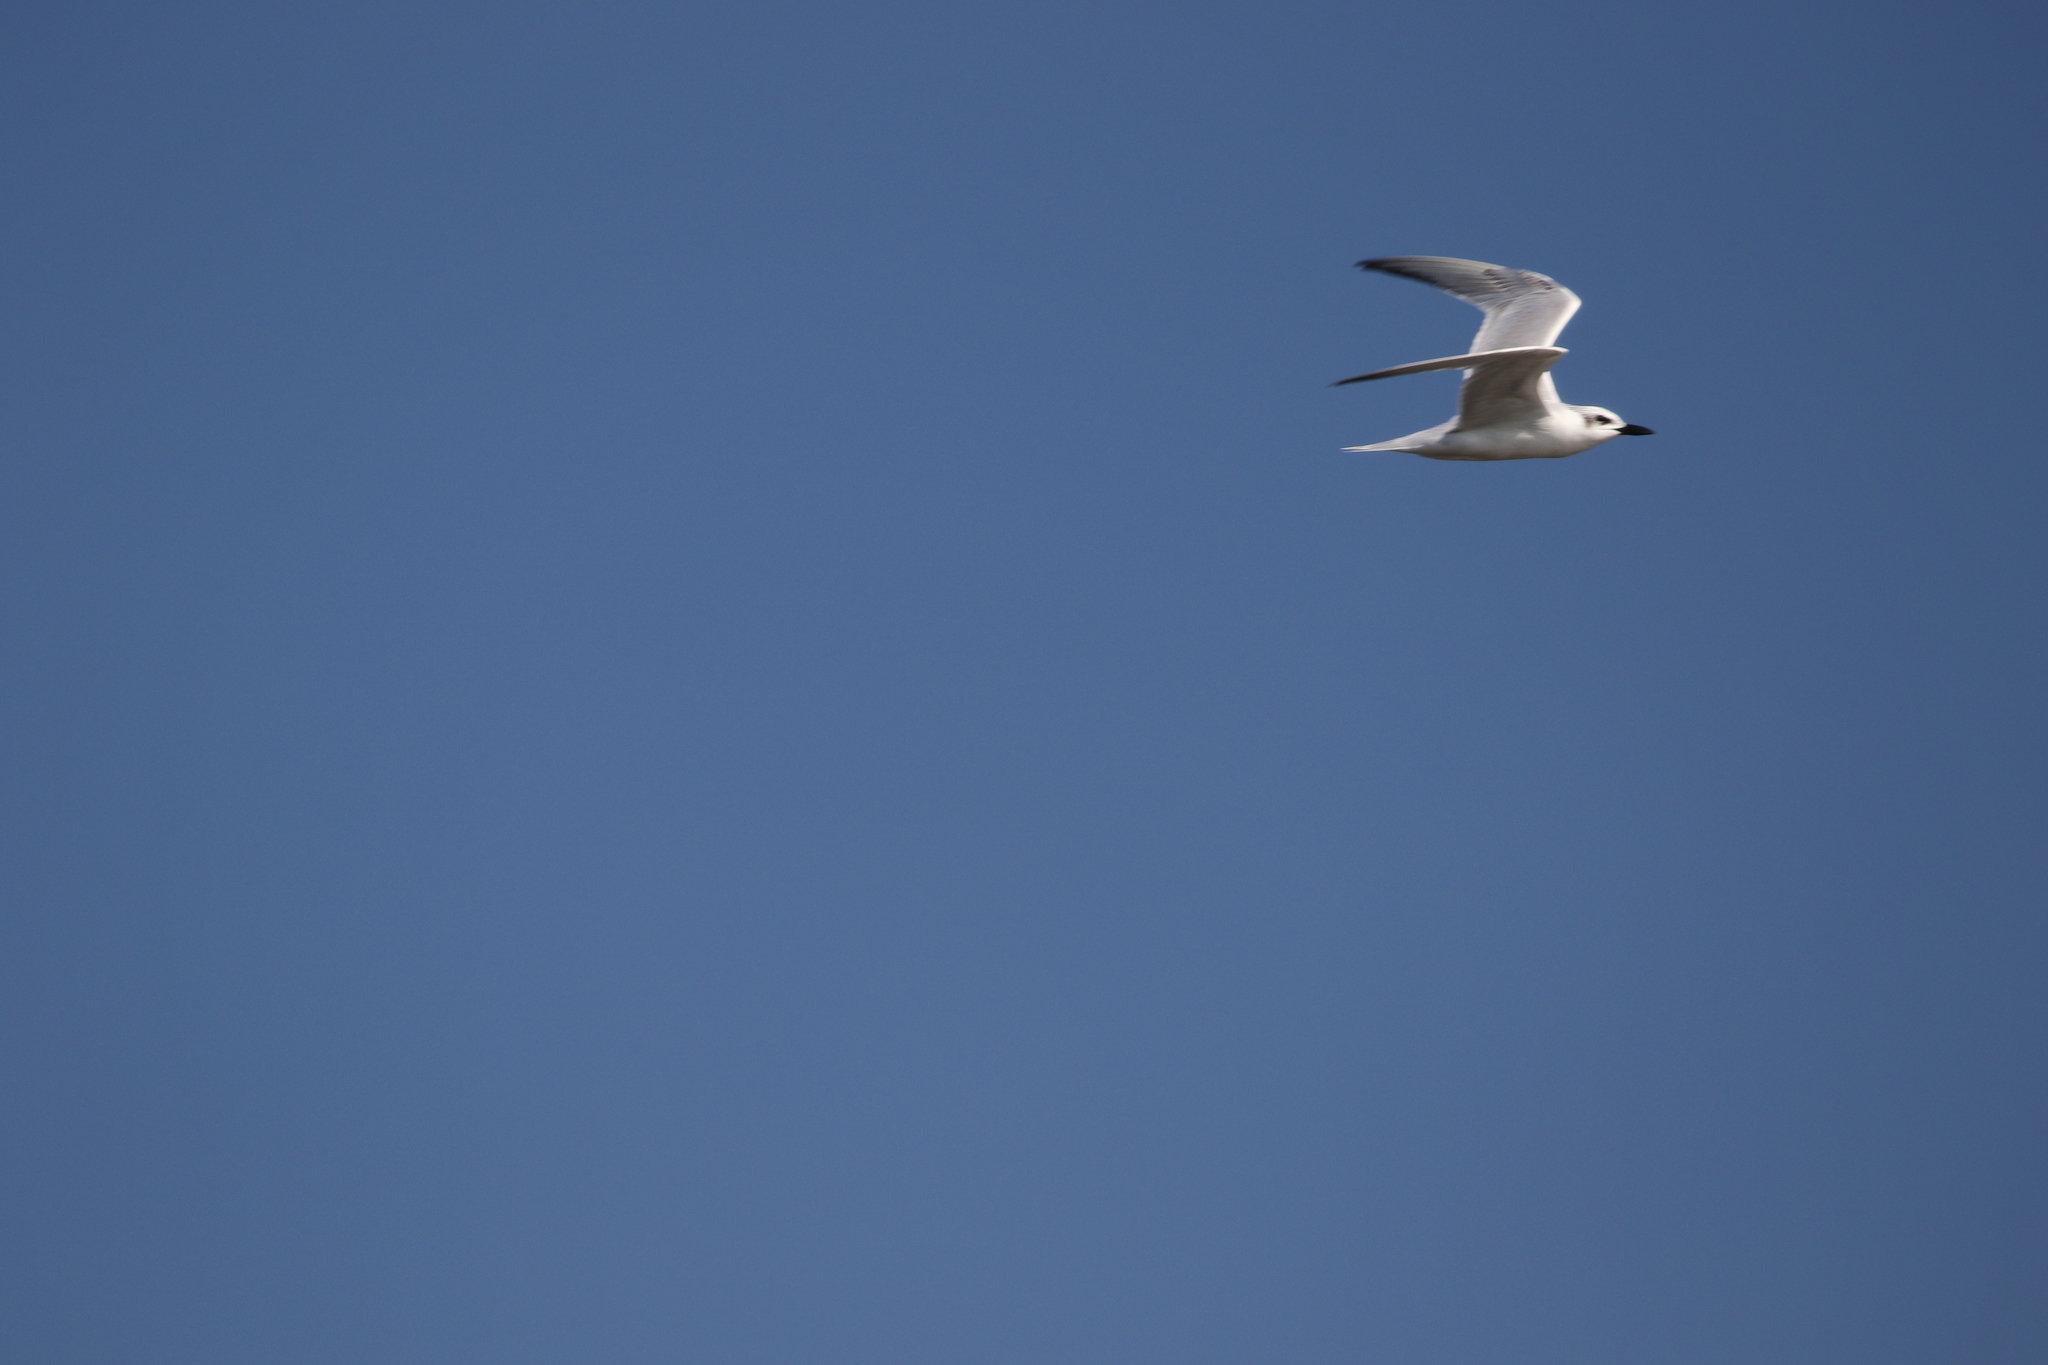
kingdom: Animalia
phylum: Chordata
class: Aves
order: Charadriiformes
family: Laridae
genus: Gelochelidon
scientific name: Gelochelidon nilotica
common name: Gull-billed tern
